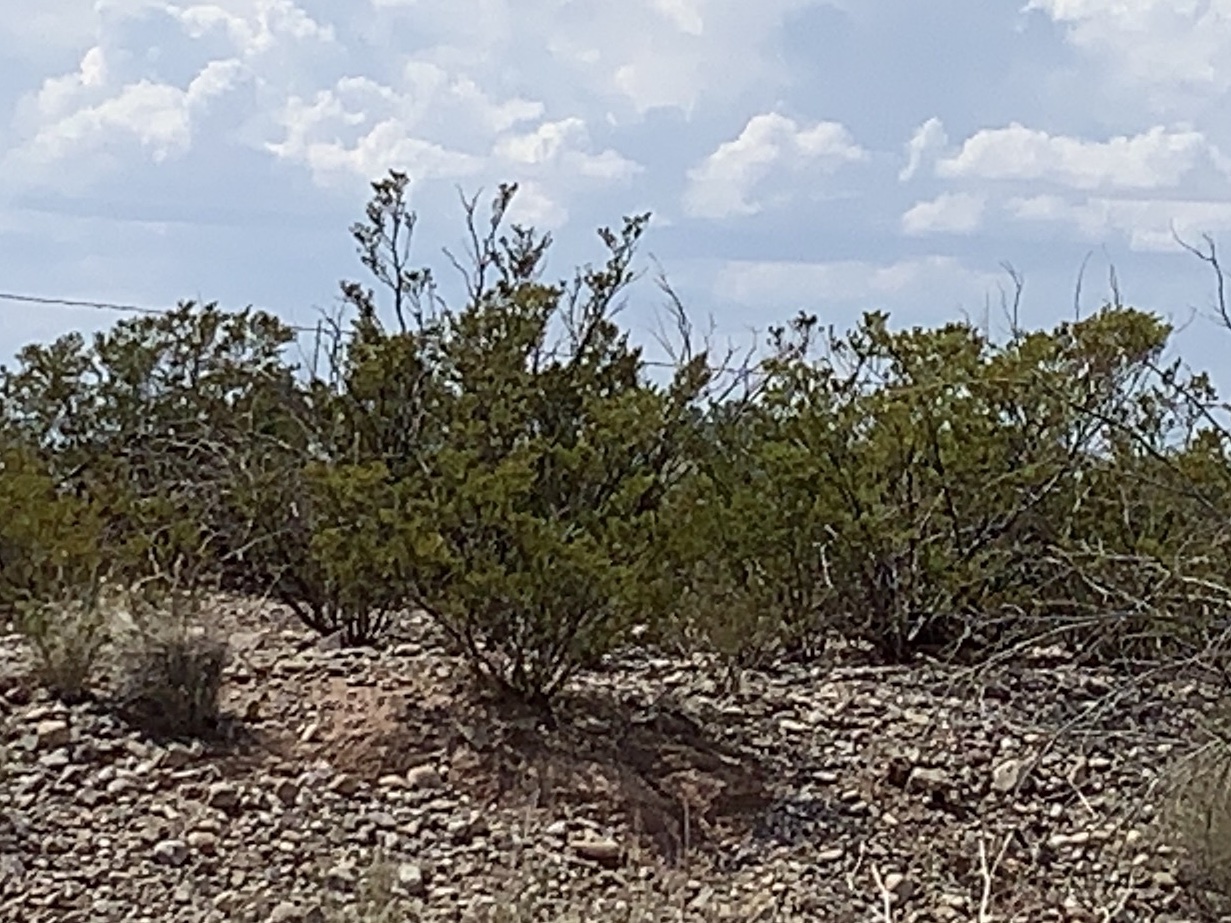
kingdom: Plantae
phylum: Tracheophyta
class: Magnoliopsida
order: Zygophyllales
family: Zygophyllaceae
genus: Larrea
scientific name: Larrea tridentata
